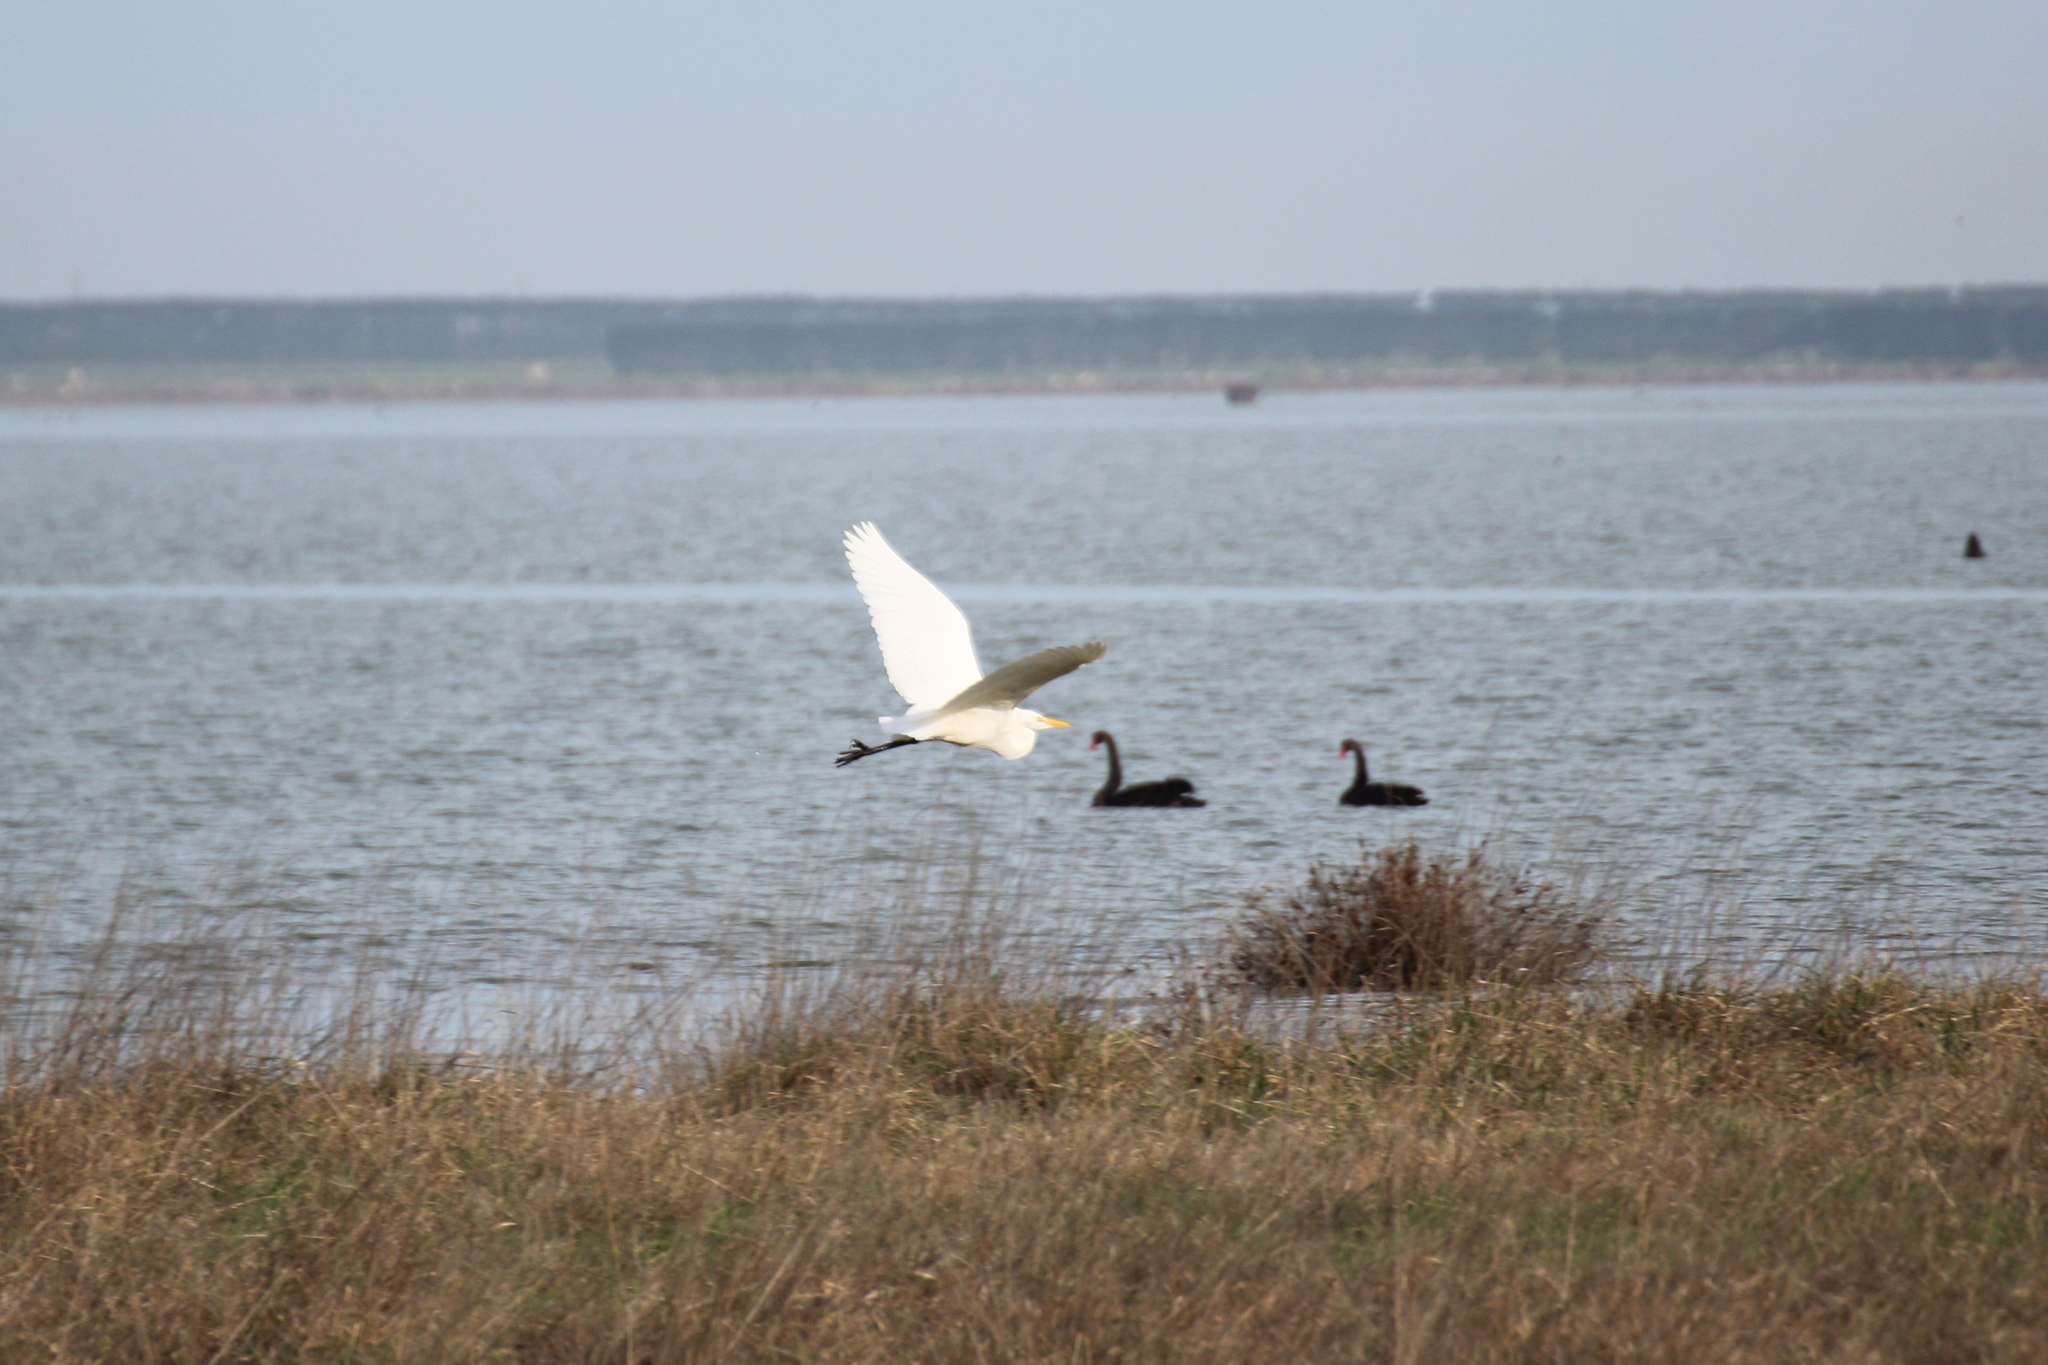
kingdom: Animalia
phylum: Chordata
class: Aves
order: Pelecaniformes
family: Ardeidae
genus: Ardea
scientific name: Ardea modesta
